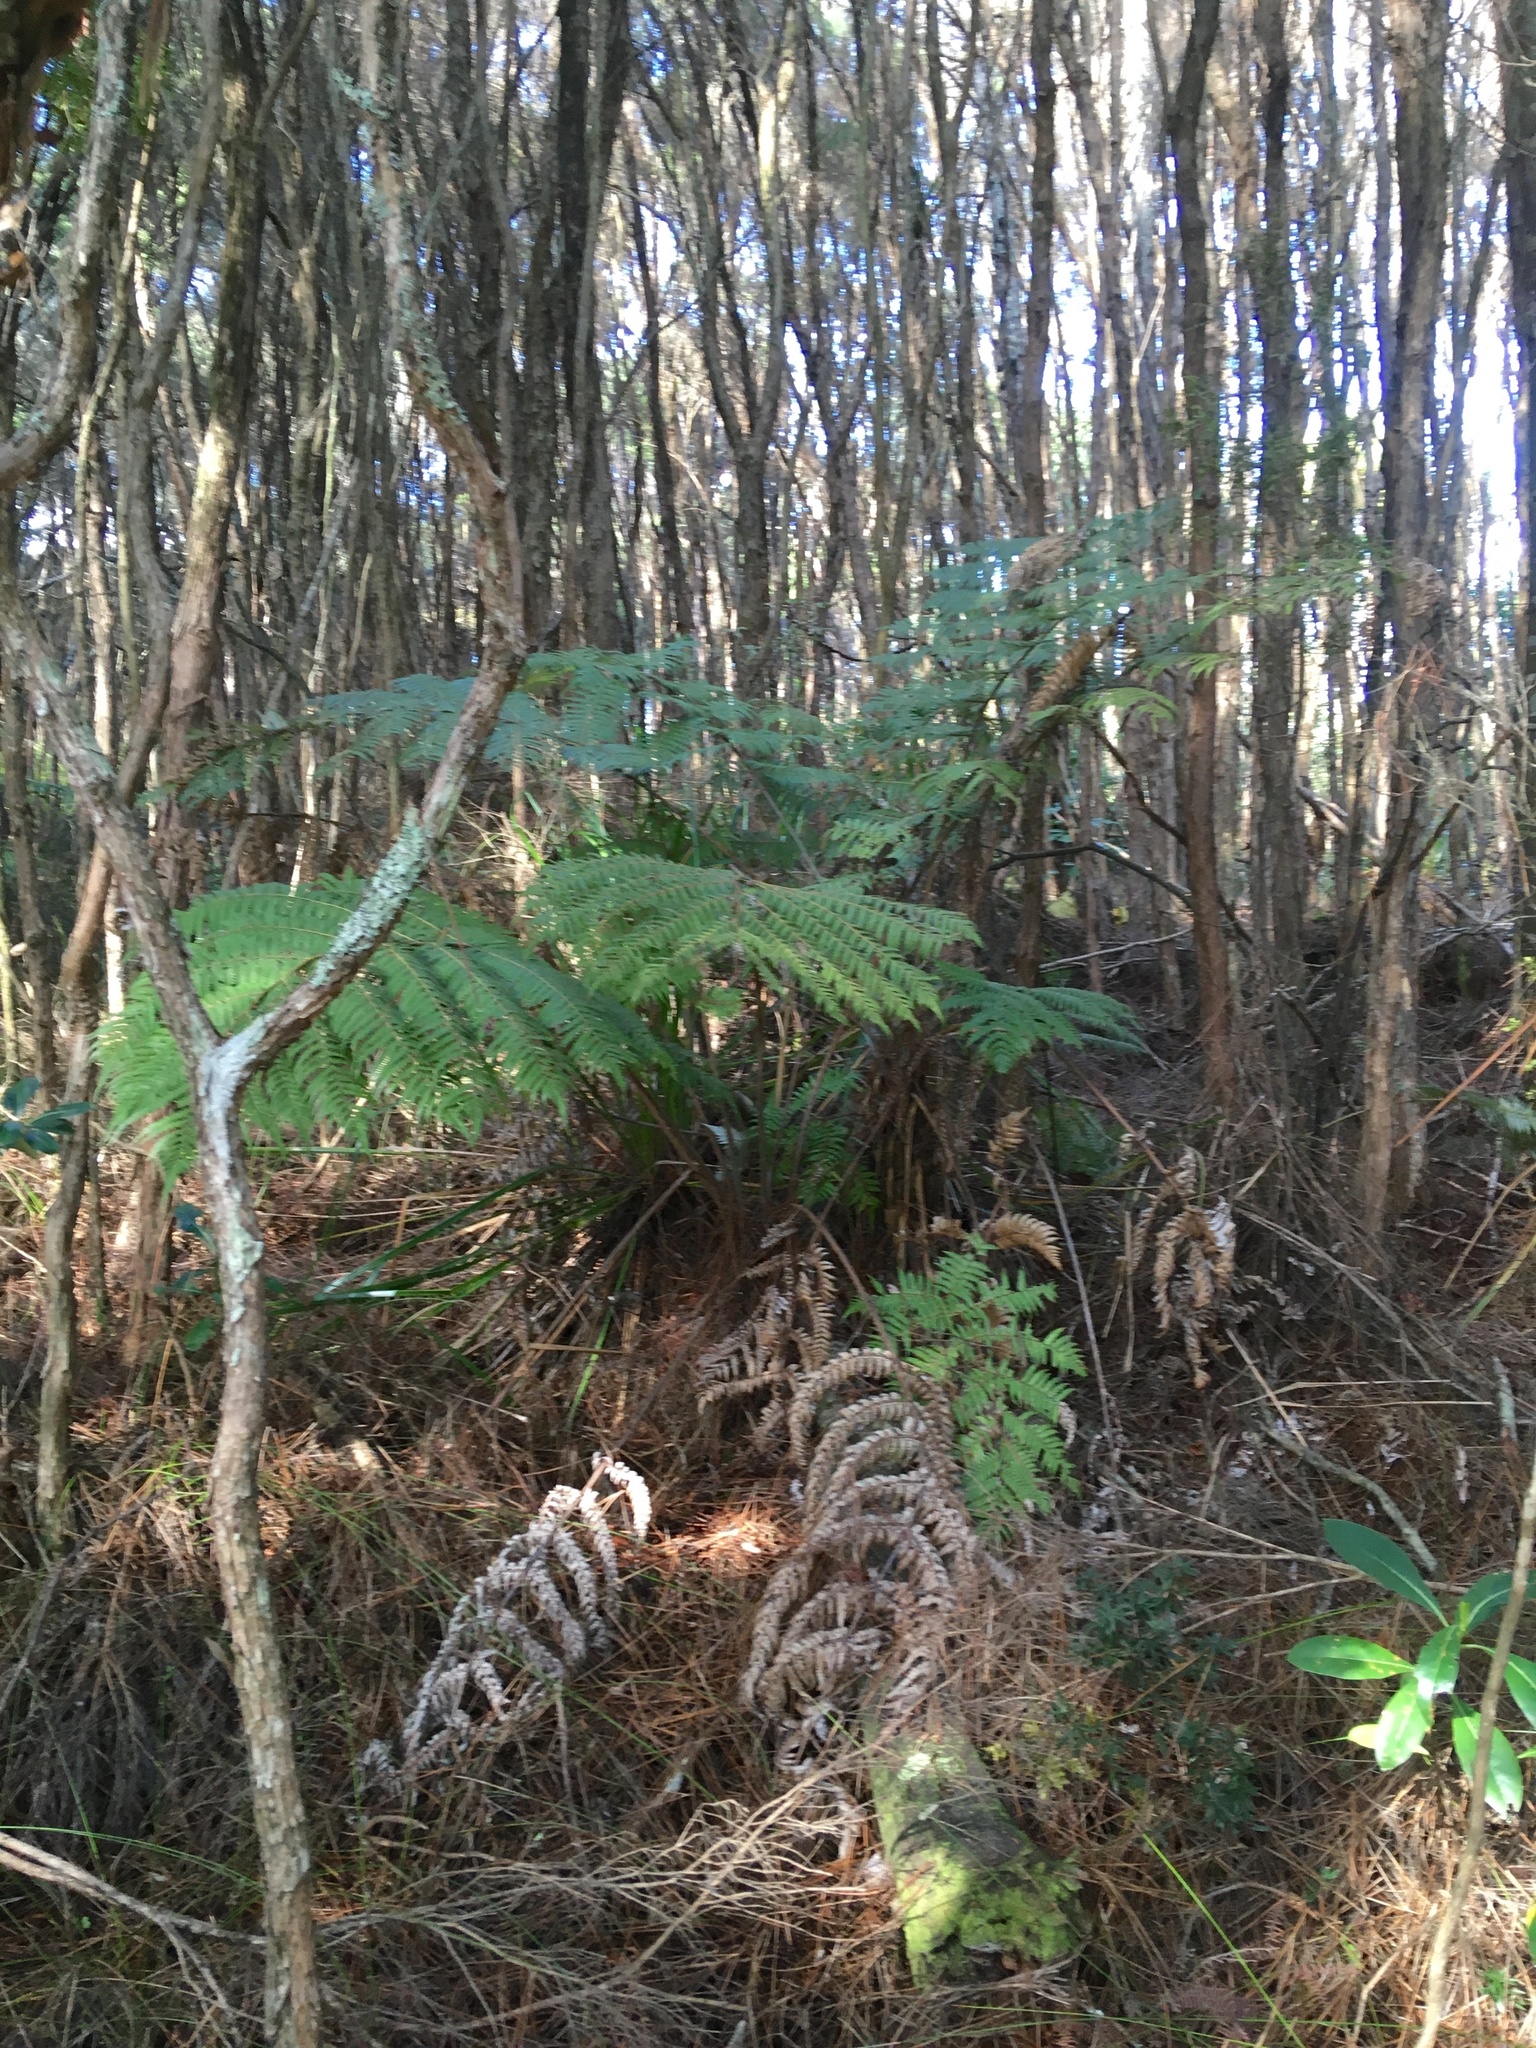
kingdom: Plantae
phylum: Tracheophyta
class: Polypodiopsida
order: Cyatheales
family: Cyatheaceae
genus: Alsophila
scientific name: Alsophila dealbata
